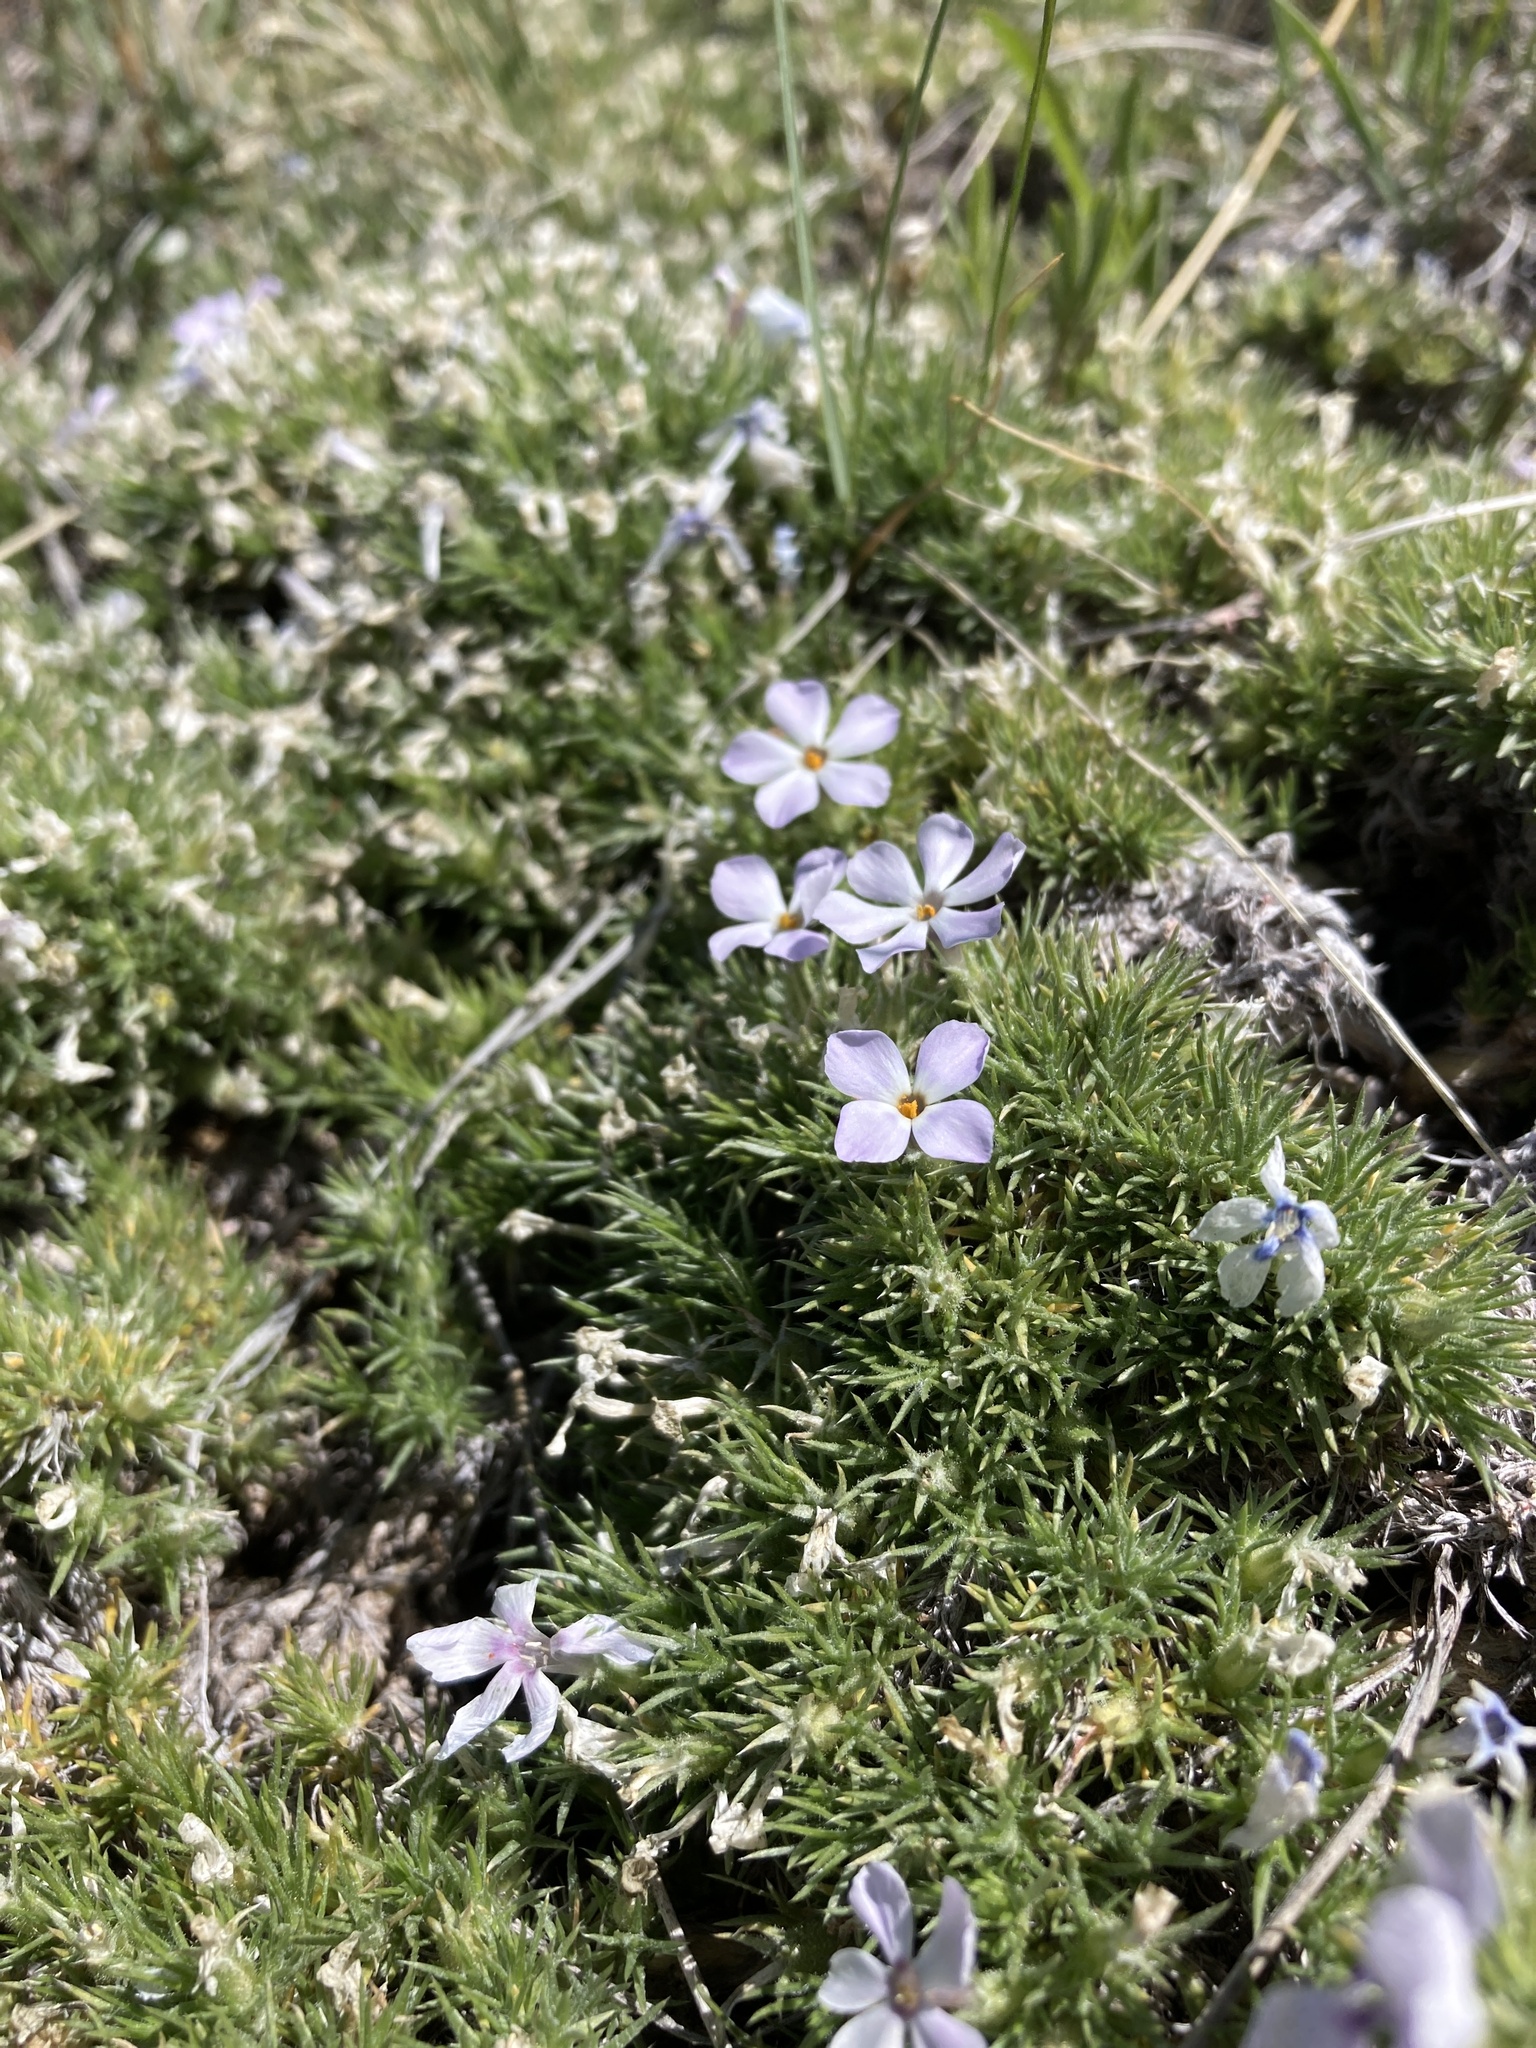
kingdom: Plantae
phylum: Tracheophyta
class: Magnoliopsida
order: Ericales
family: Polemoniaceae
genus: Phlox
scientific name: Phlox hoodii
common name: Moss phlox
